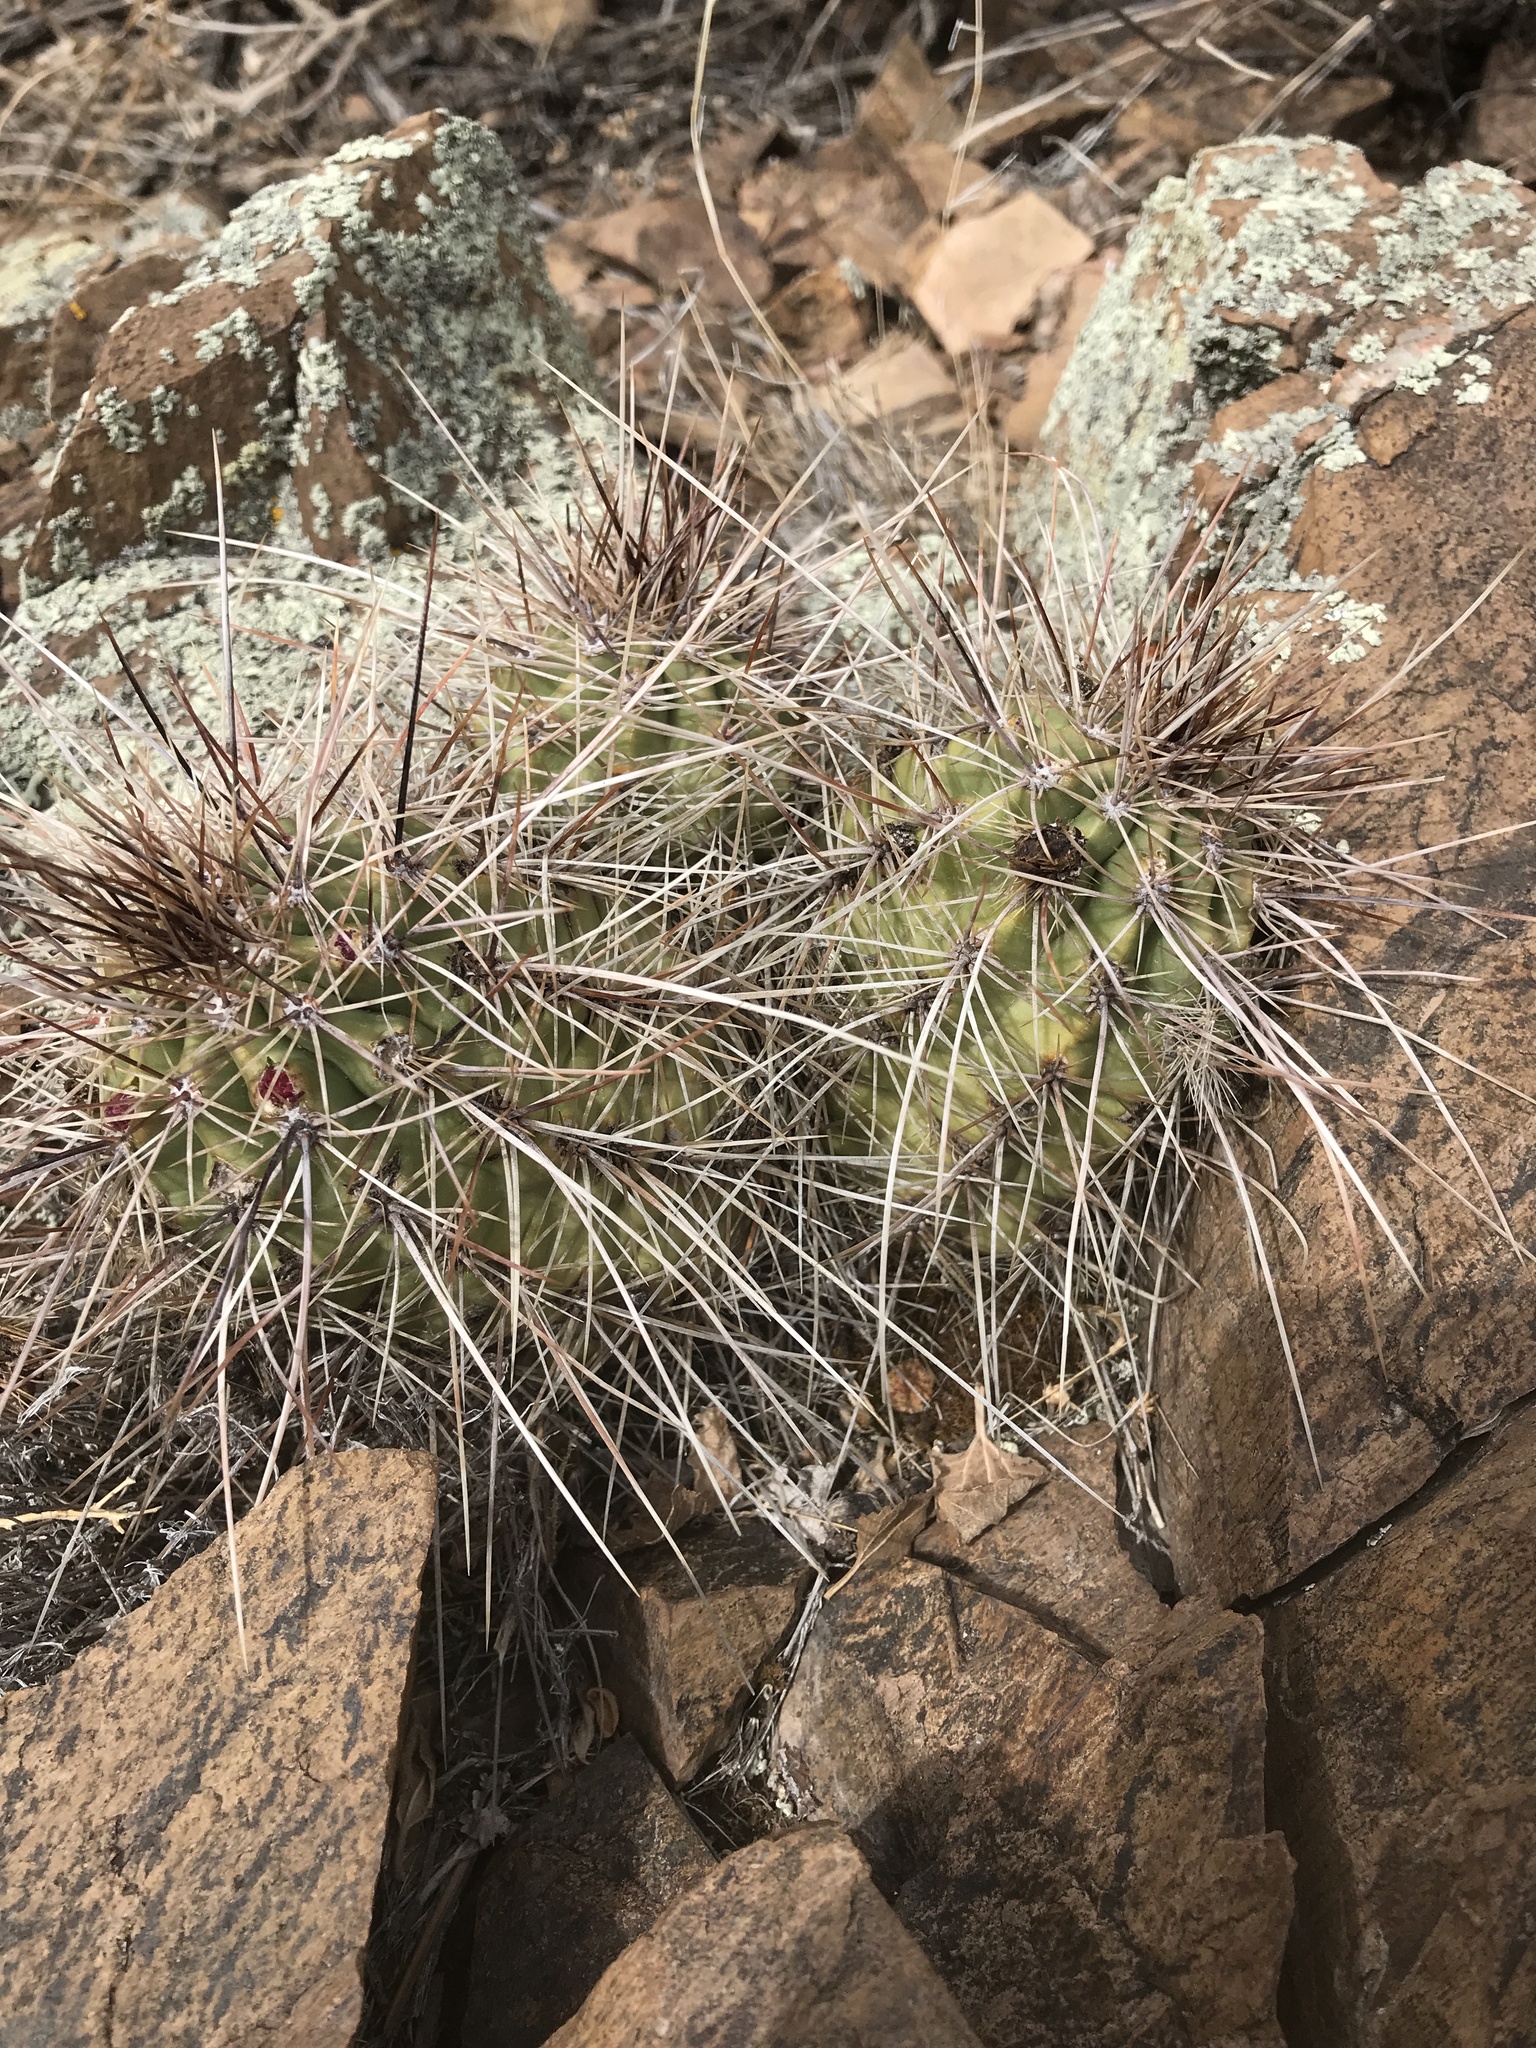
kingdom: Plantae
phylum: Tracheophyta
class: Magnoliopsida
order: Caryophyllales
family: Cactaceae
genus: Echinocereus
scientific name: Echinocereus coccineus
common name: Scarlet hedgehog cactus
